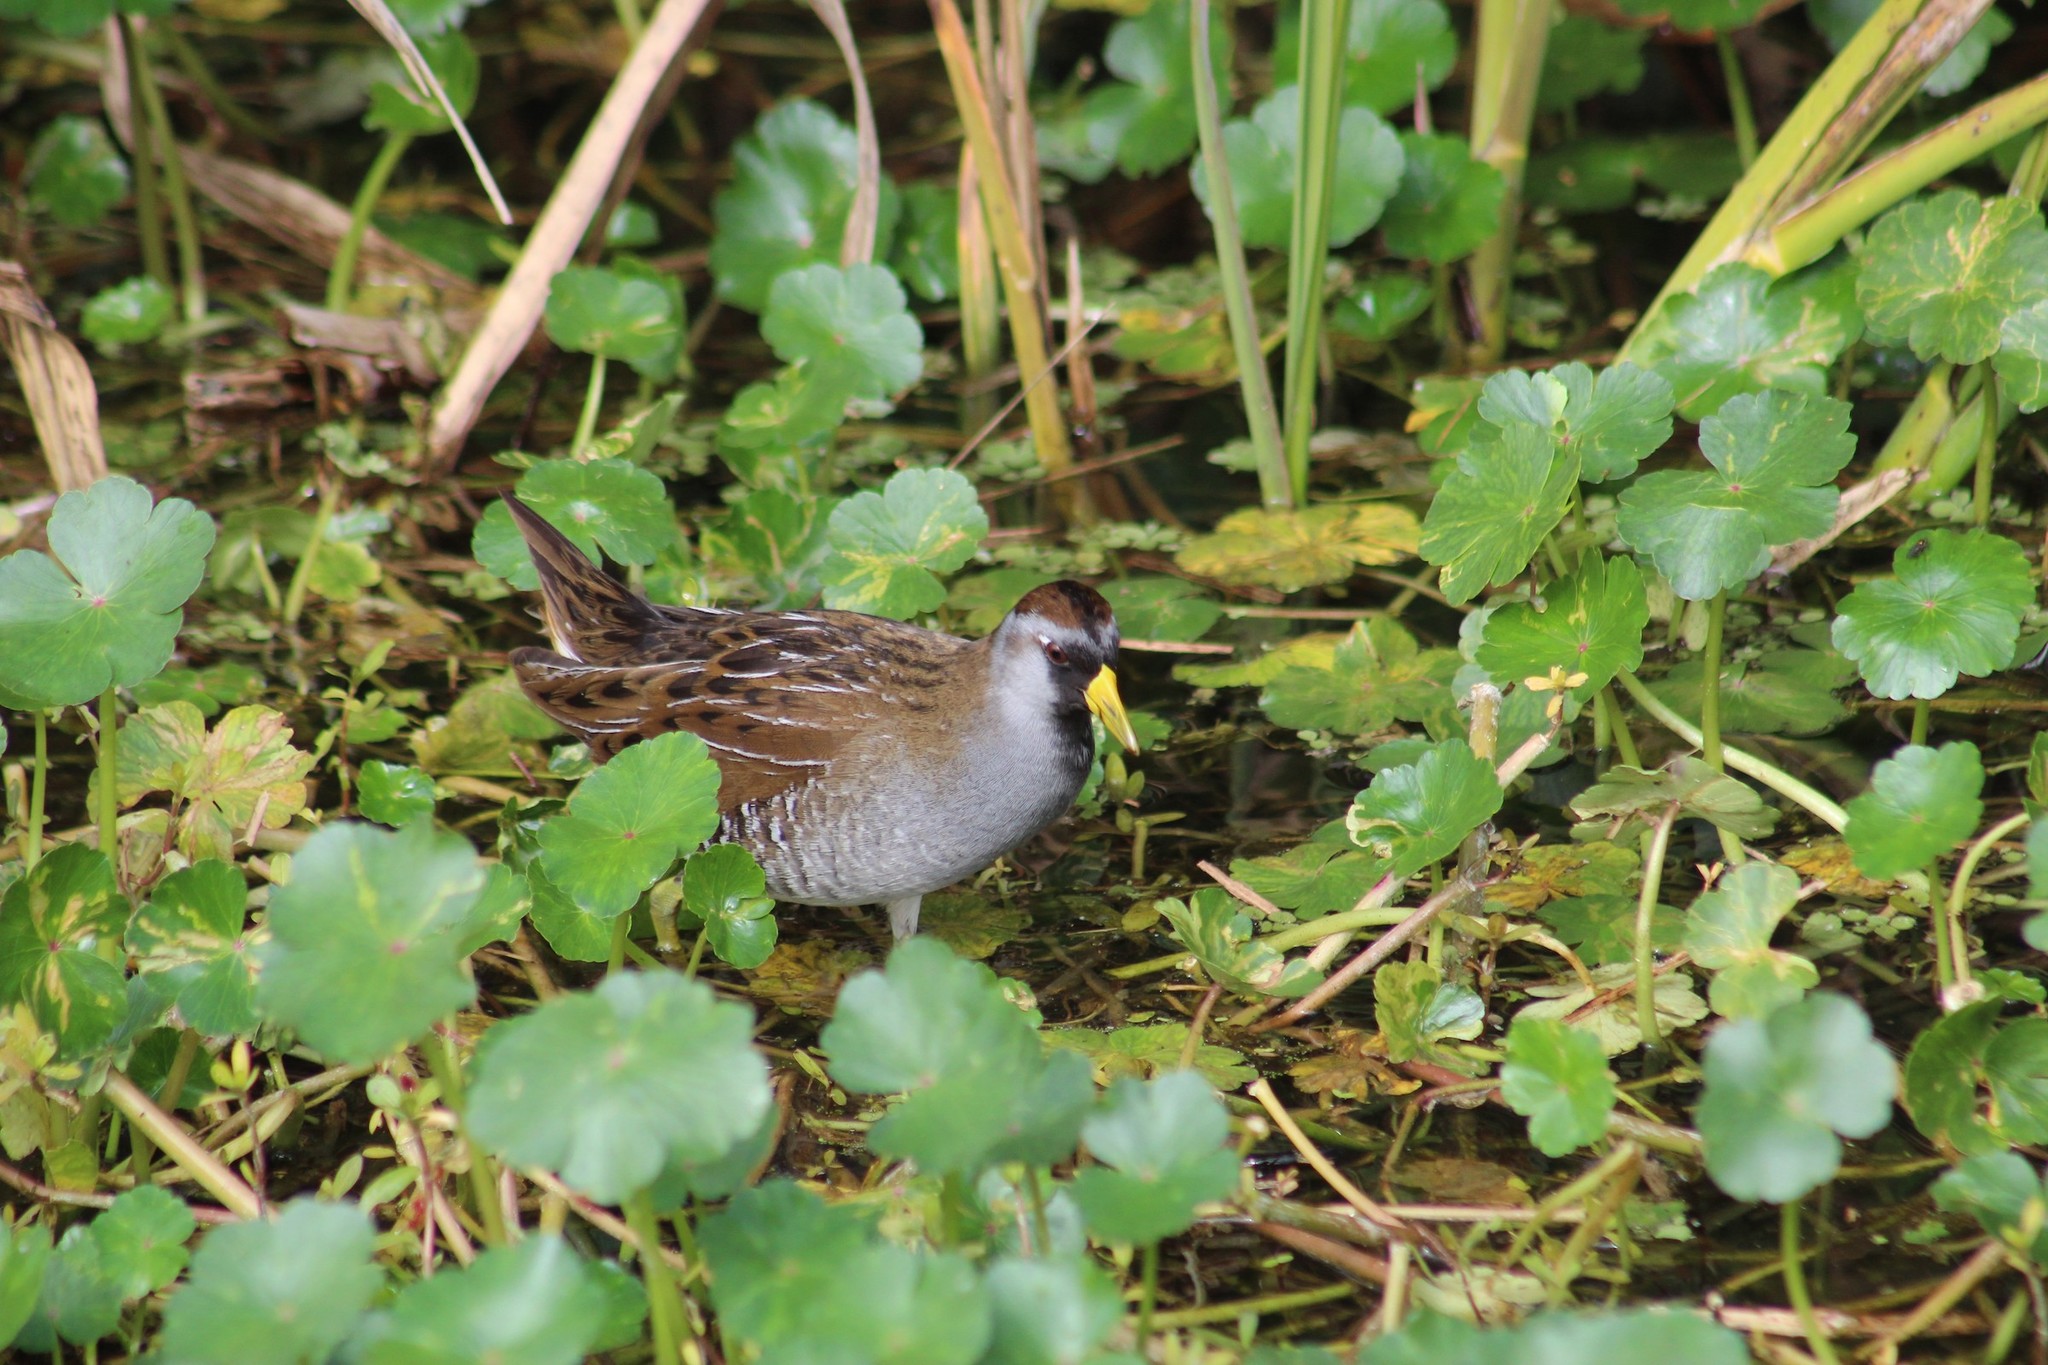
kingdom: Animalia
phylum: Chordata
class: Aves
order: Gruiformes
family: Rallidae
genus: Porzana
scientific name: Porzana carolina
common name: Sora
